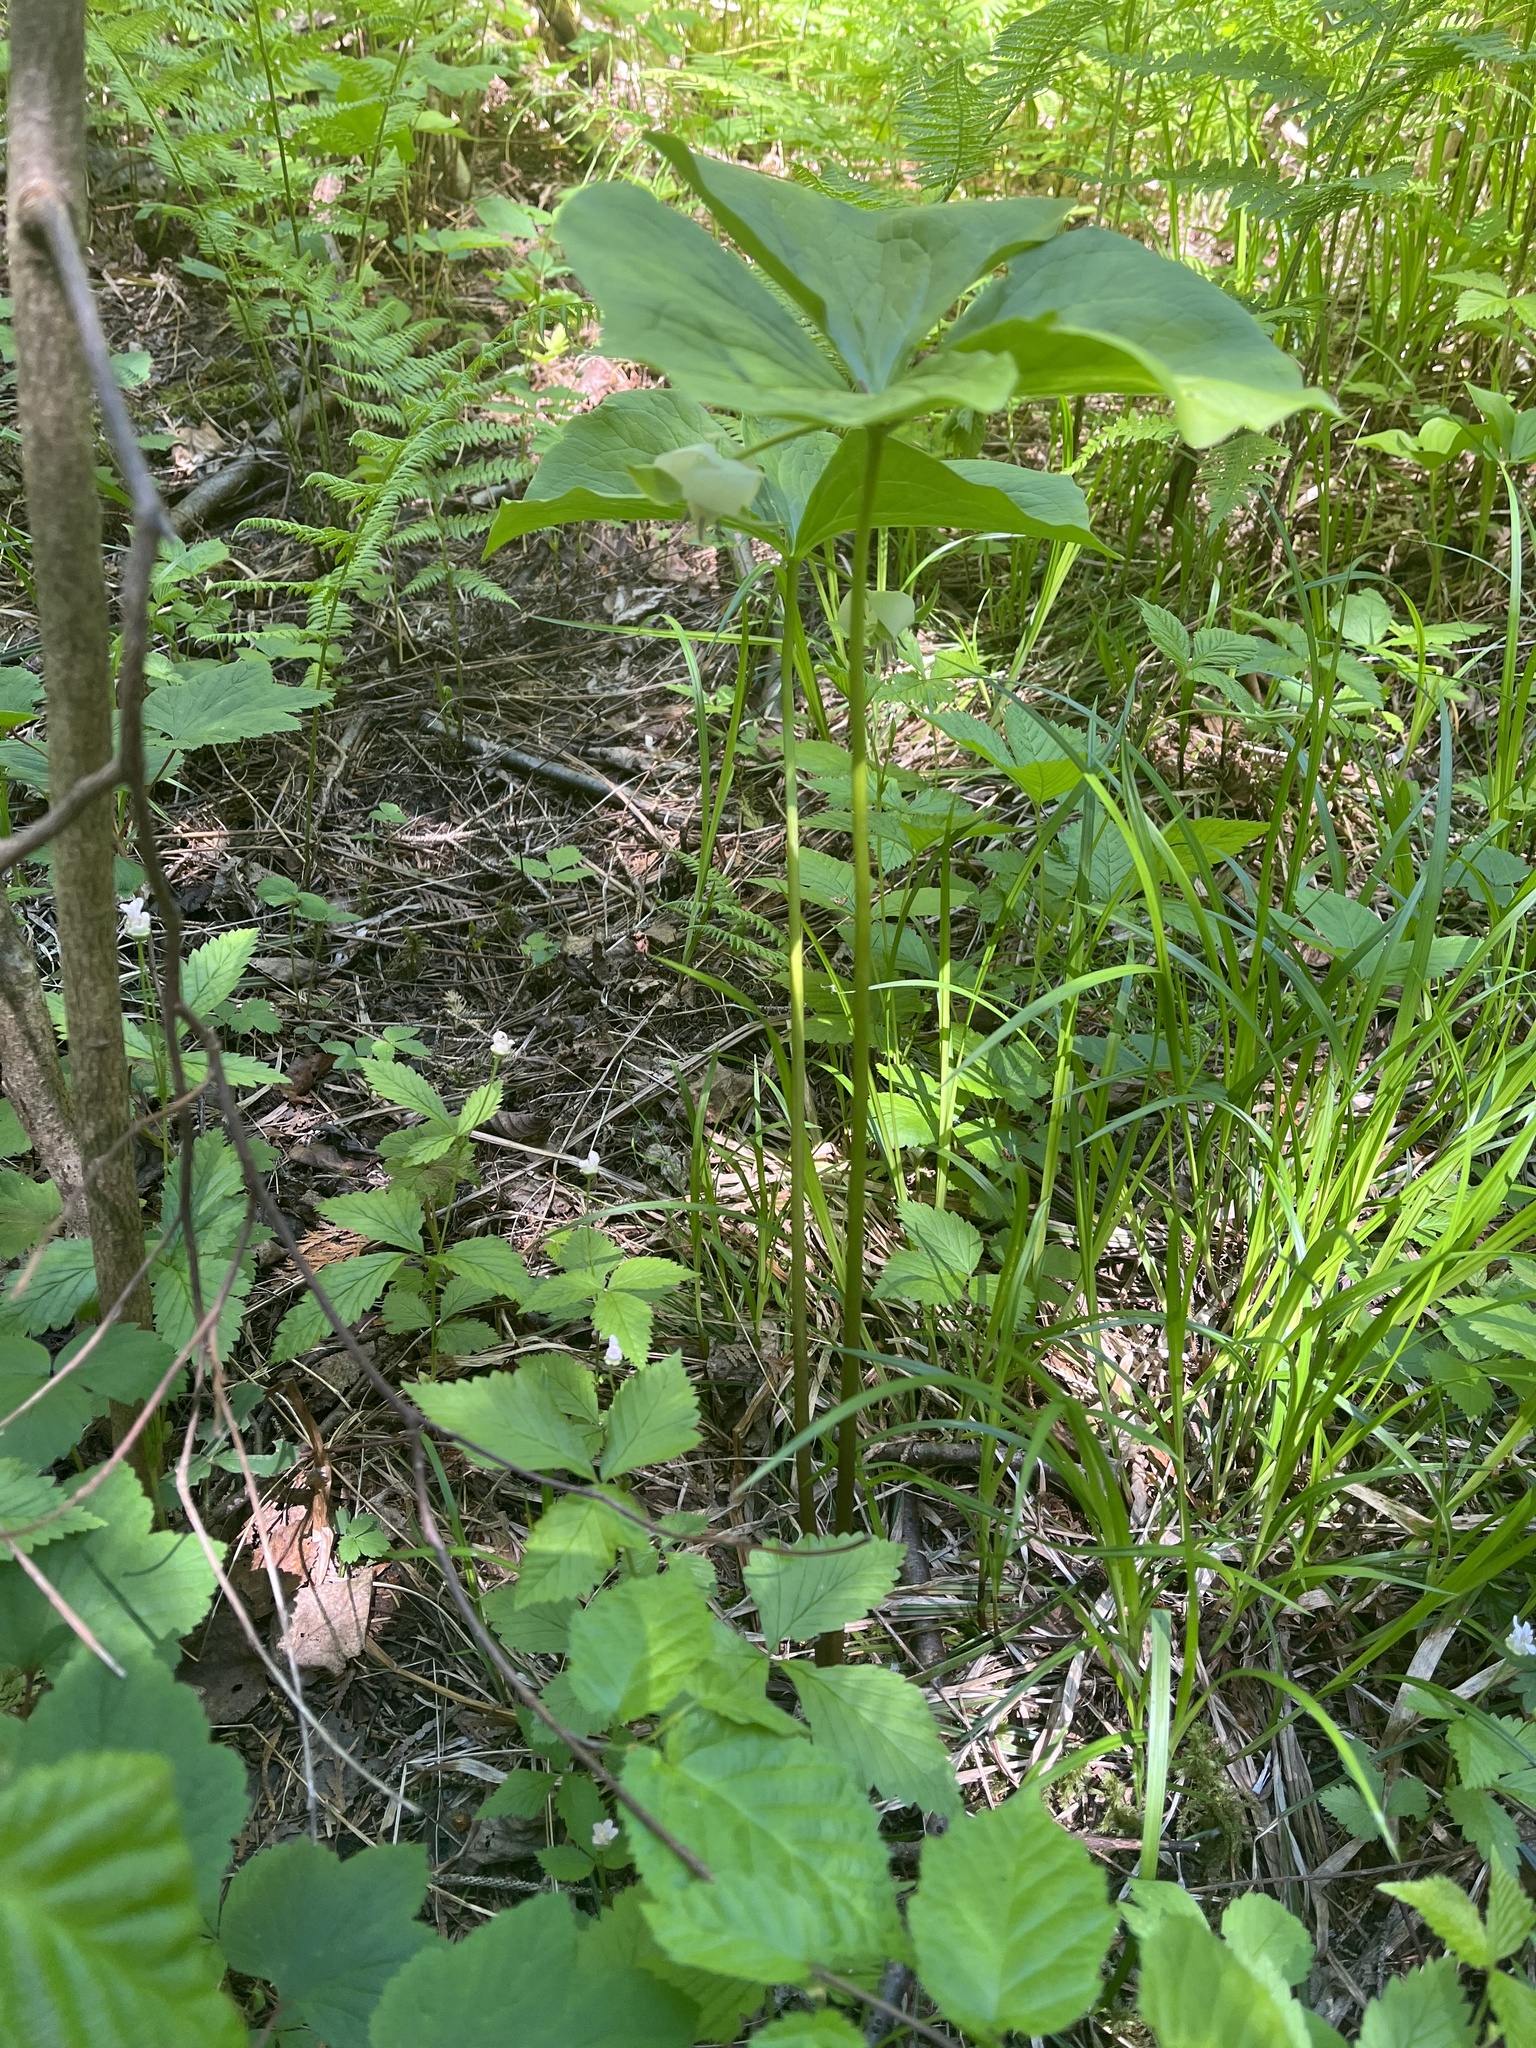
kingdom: Plantae
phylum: Tracheophyta
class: Liliopsida
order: Liliales
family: Melanthiaceae
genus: Trillium
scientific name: Trillium cernuum
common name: Nodding trillium
